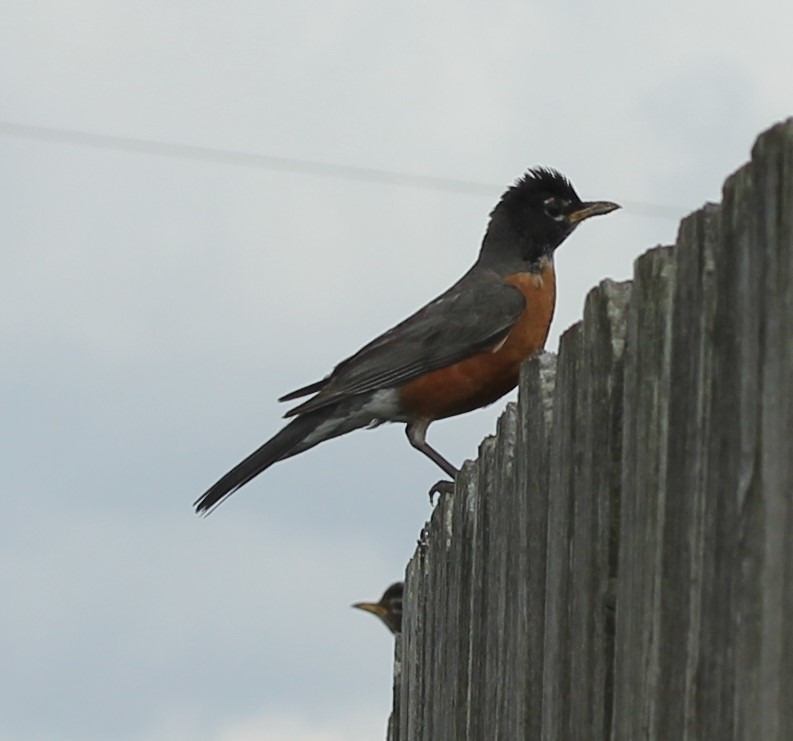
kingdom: Animalia
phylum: Chordata
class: Aves
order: Passeriformes
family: Turdidae
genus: Turdus
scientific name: Turdus migratorius
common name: American robin
